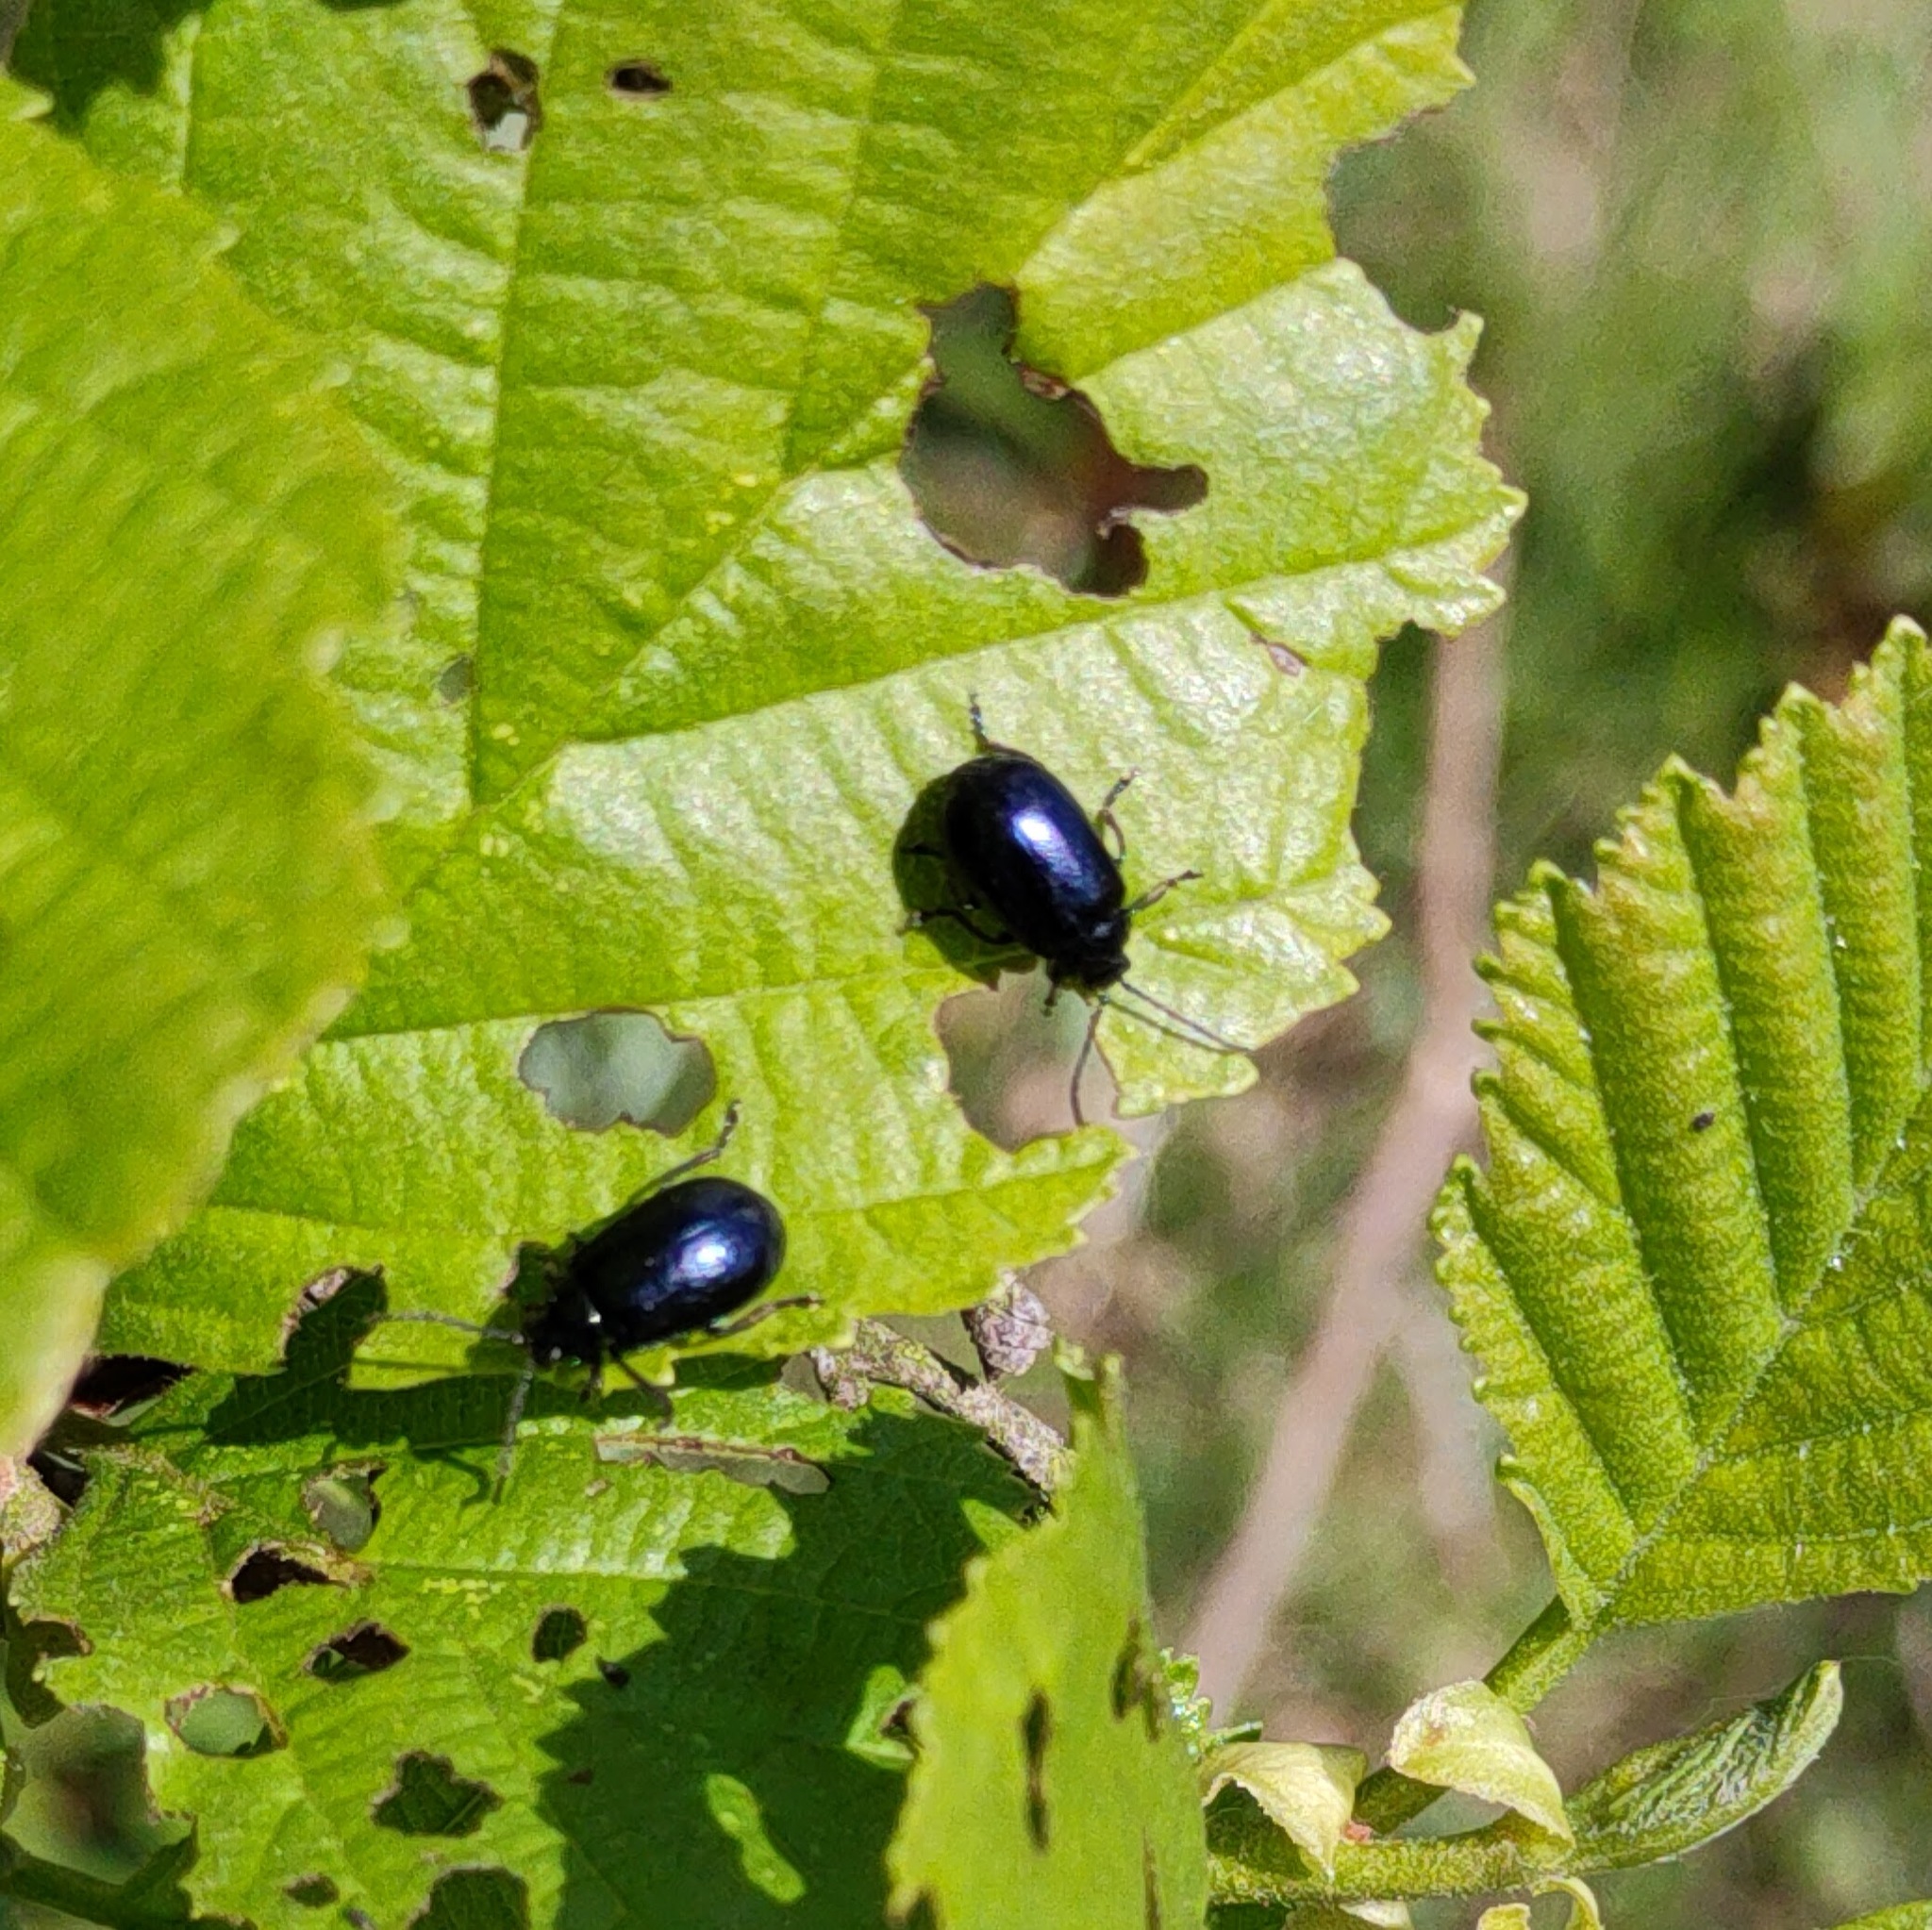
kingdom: Animalia
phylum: Arthropoda
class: Insecta
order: Coleoptera
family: Chrysomelidae
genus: Agelastica
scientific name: Agelastica alni
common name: Alder leaf beetle
